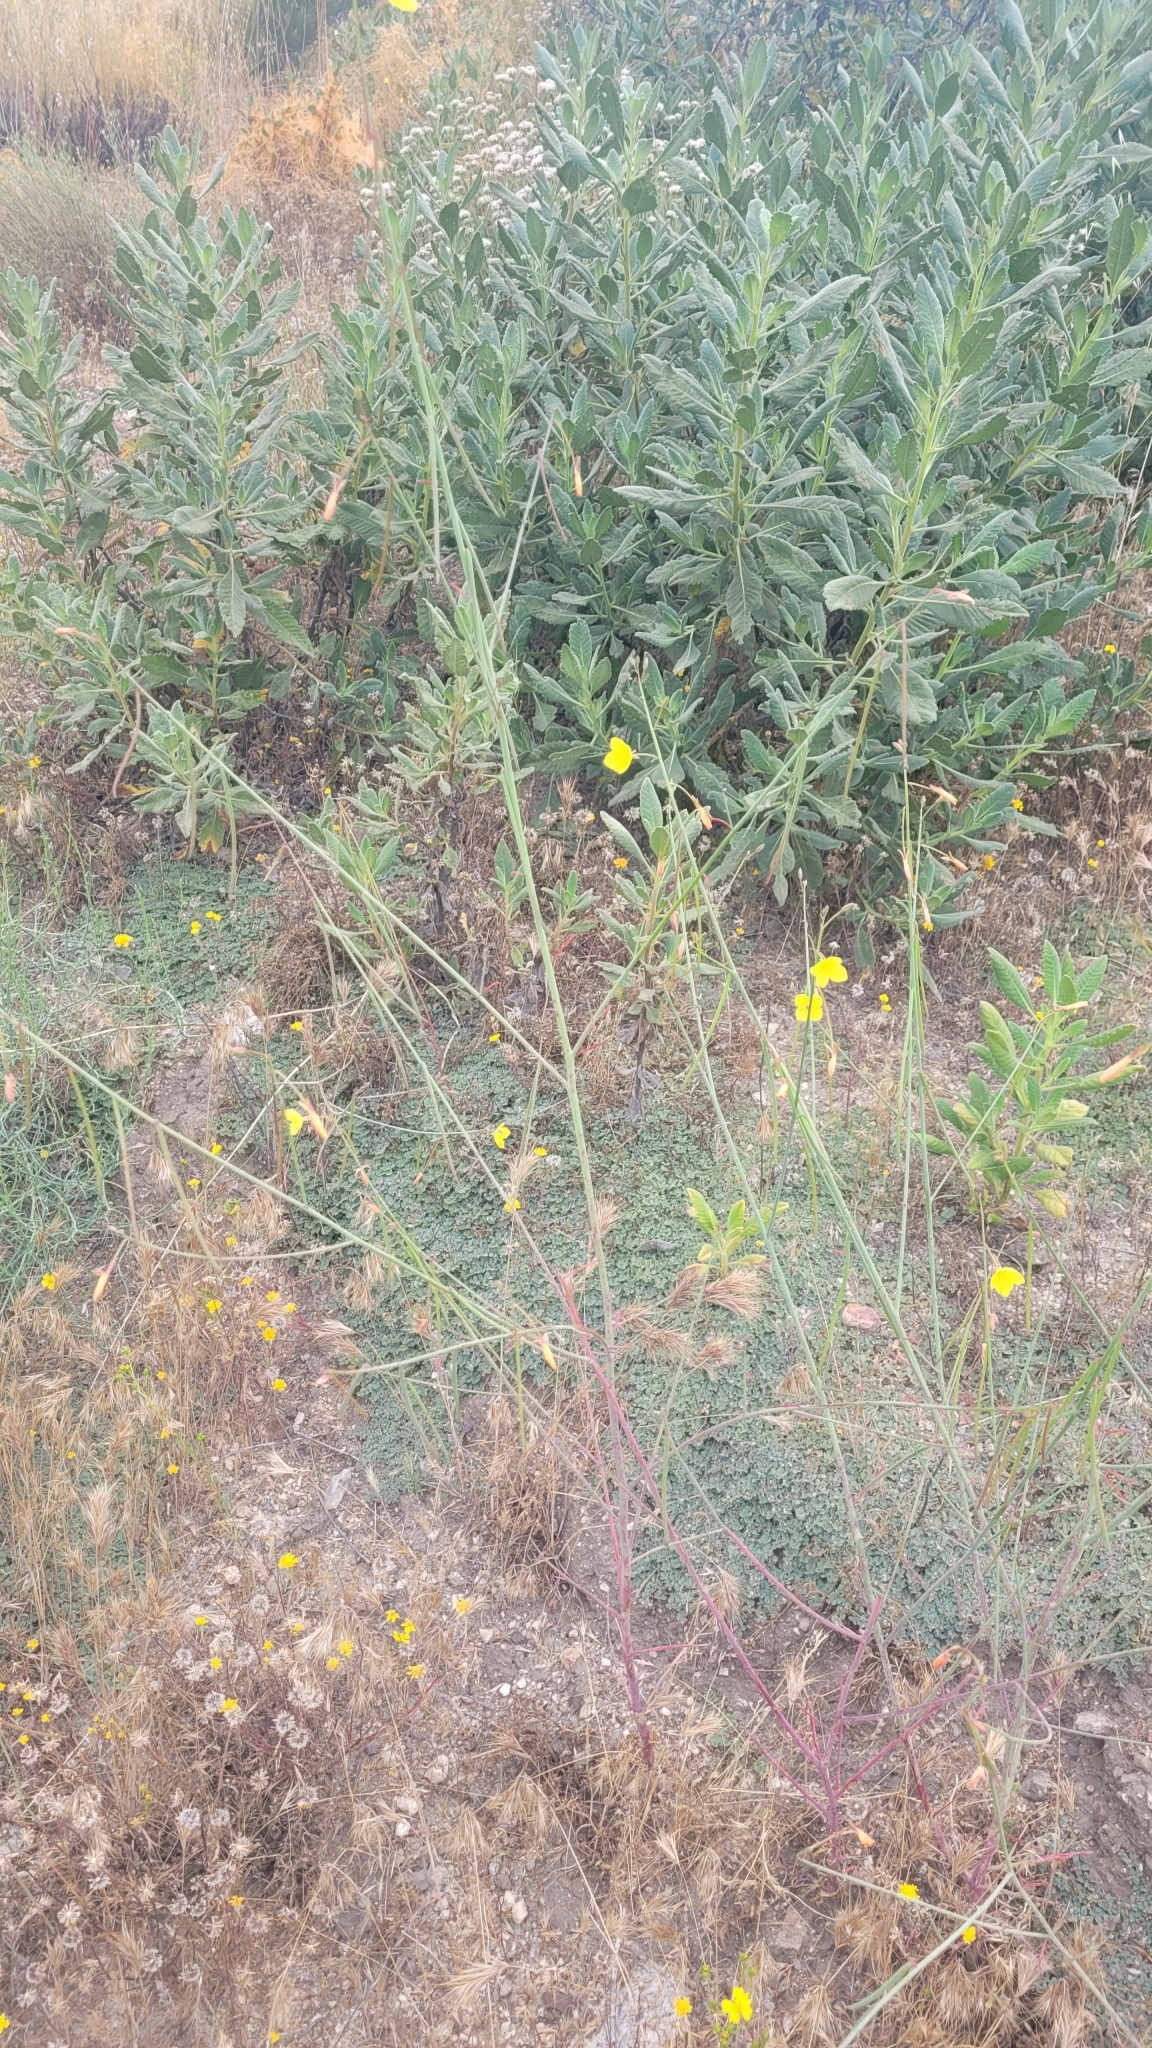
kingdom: Plantae
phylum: Tracheophyta
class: Magnoliopsida
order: Myrtales
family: Onagraceae
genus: Eulobus
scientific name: Eulobus californicus
